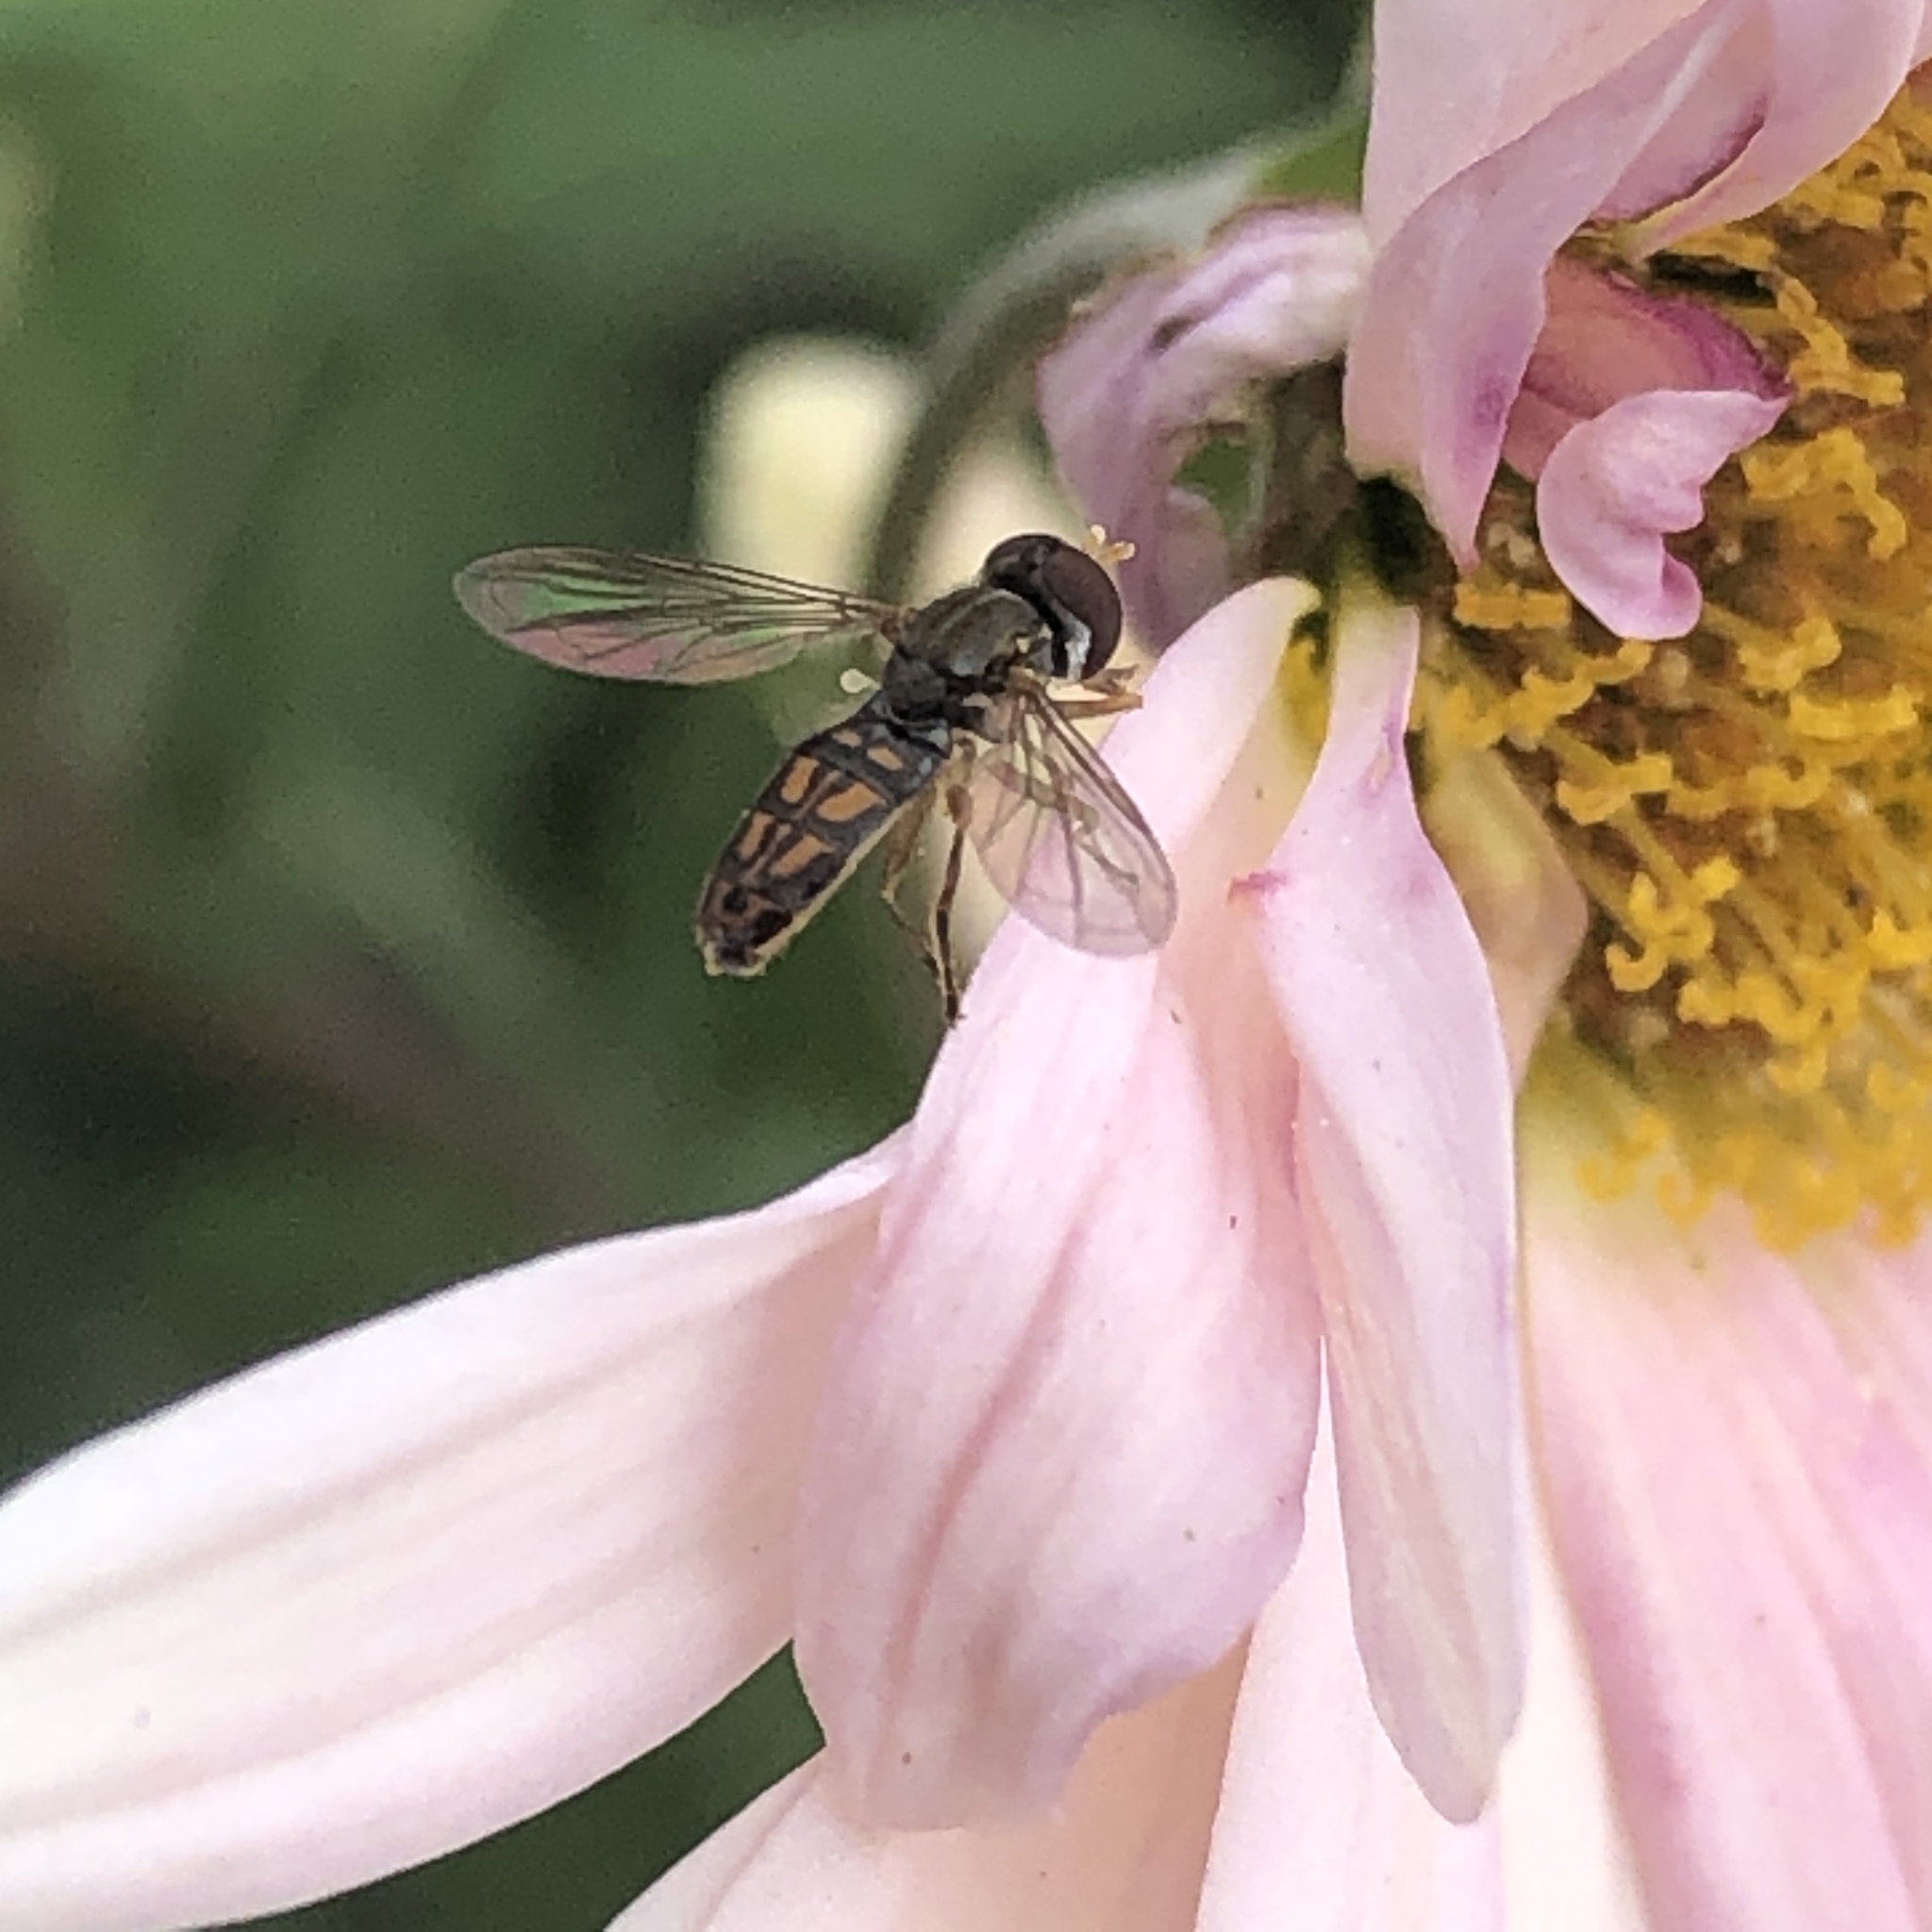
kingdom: Animalia
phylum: Arthropoda
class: Insecta
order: Diptera
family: Syrphidae
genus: Toxomerus
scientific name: Toxomerus marginatus
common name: Syrphid fly
